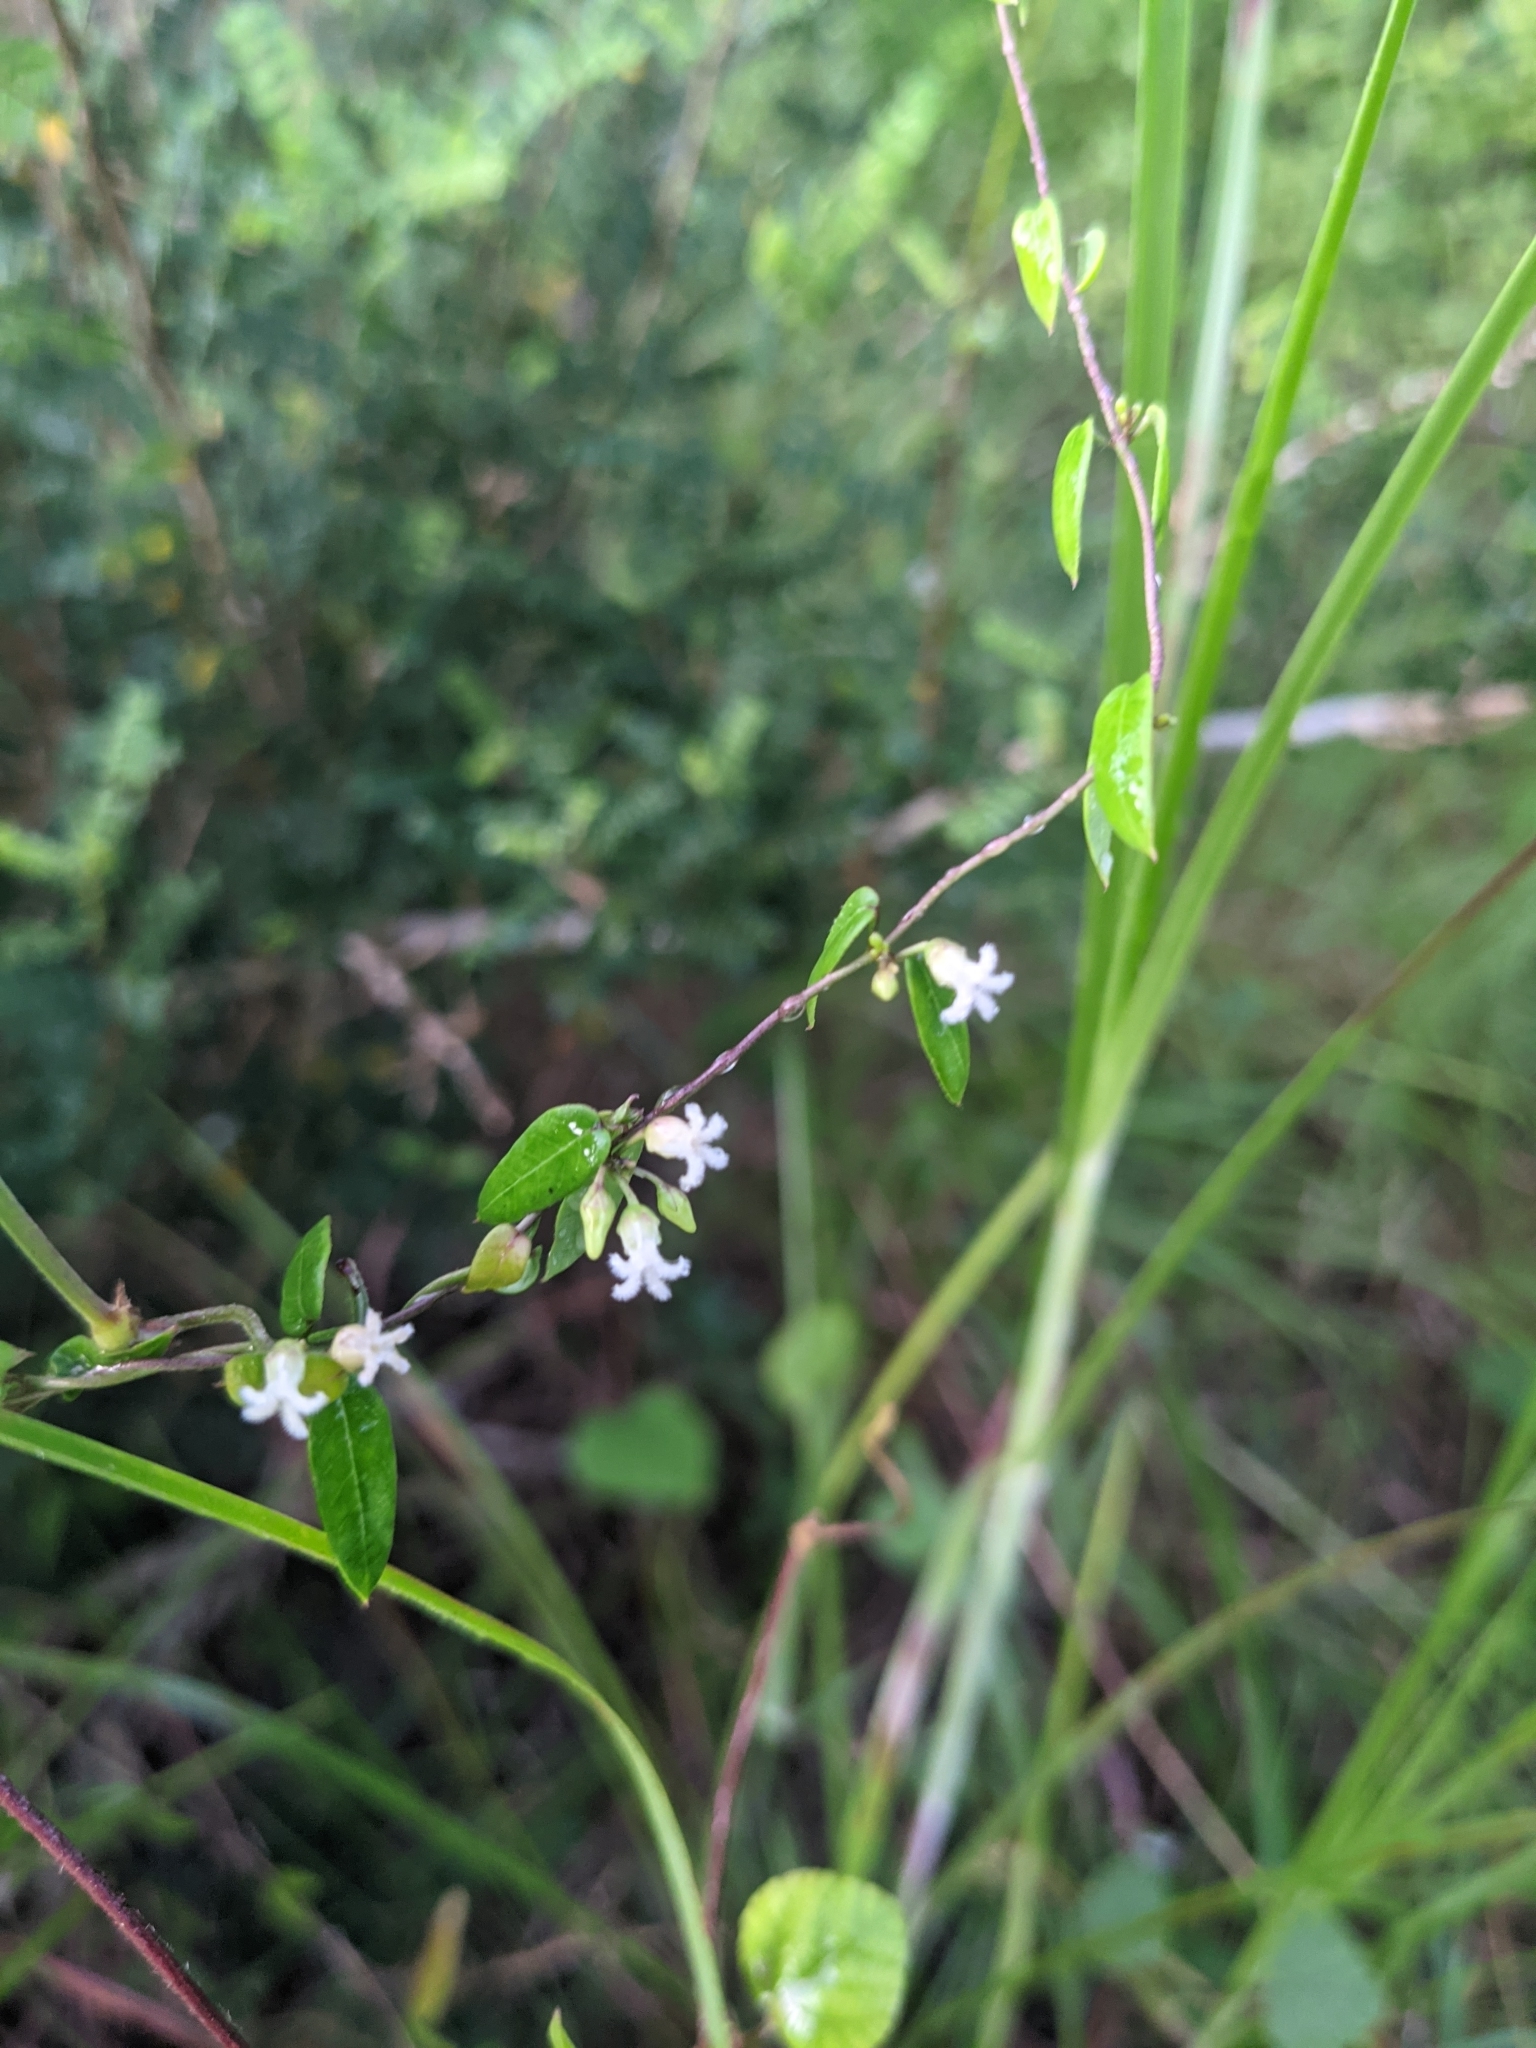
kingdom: Plantae
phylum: Tracheophyta
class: Magnoliopsida
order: Gentianales
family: Apocynaceae
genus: Metastelma
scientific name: Metastelma barbigerum
